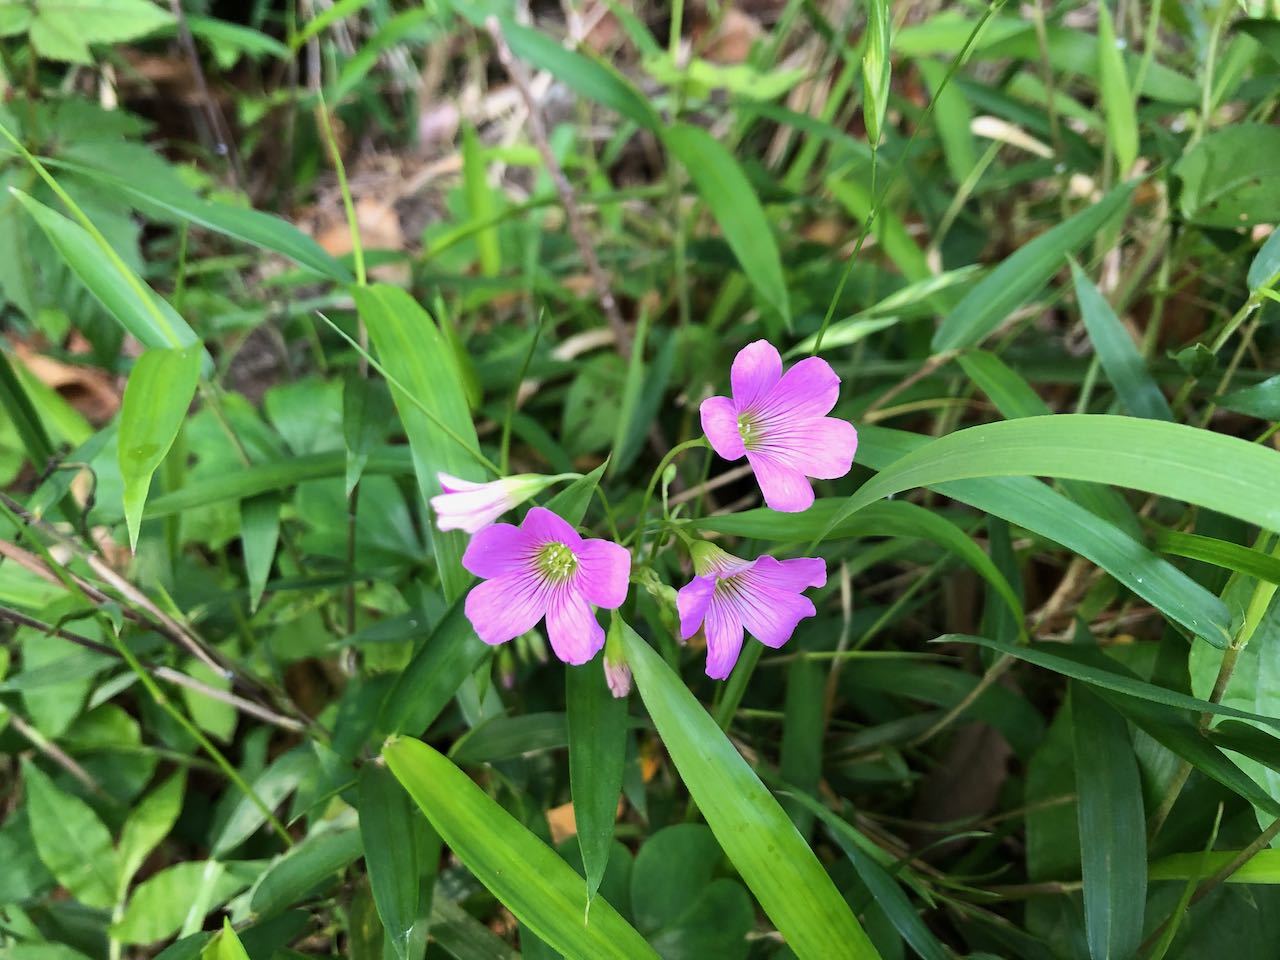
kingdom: Plantae
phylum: Tracheophyta
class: Magnoliopsida
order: Oxalidales
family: Oxalidaceae
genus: Oxalis
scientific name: Oxalis debilis
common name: Large-flowered pink-sorrel
